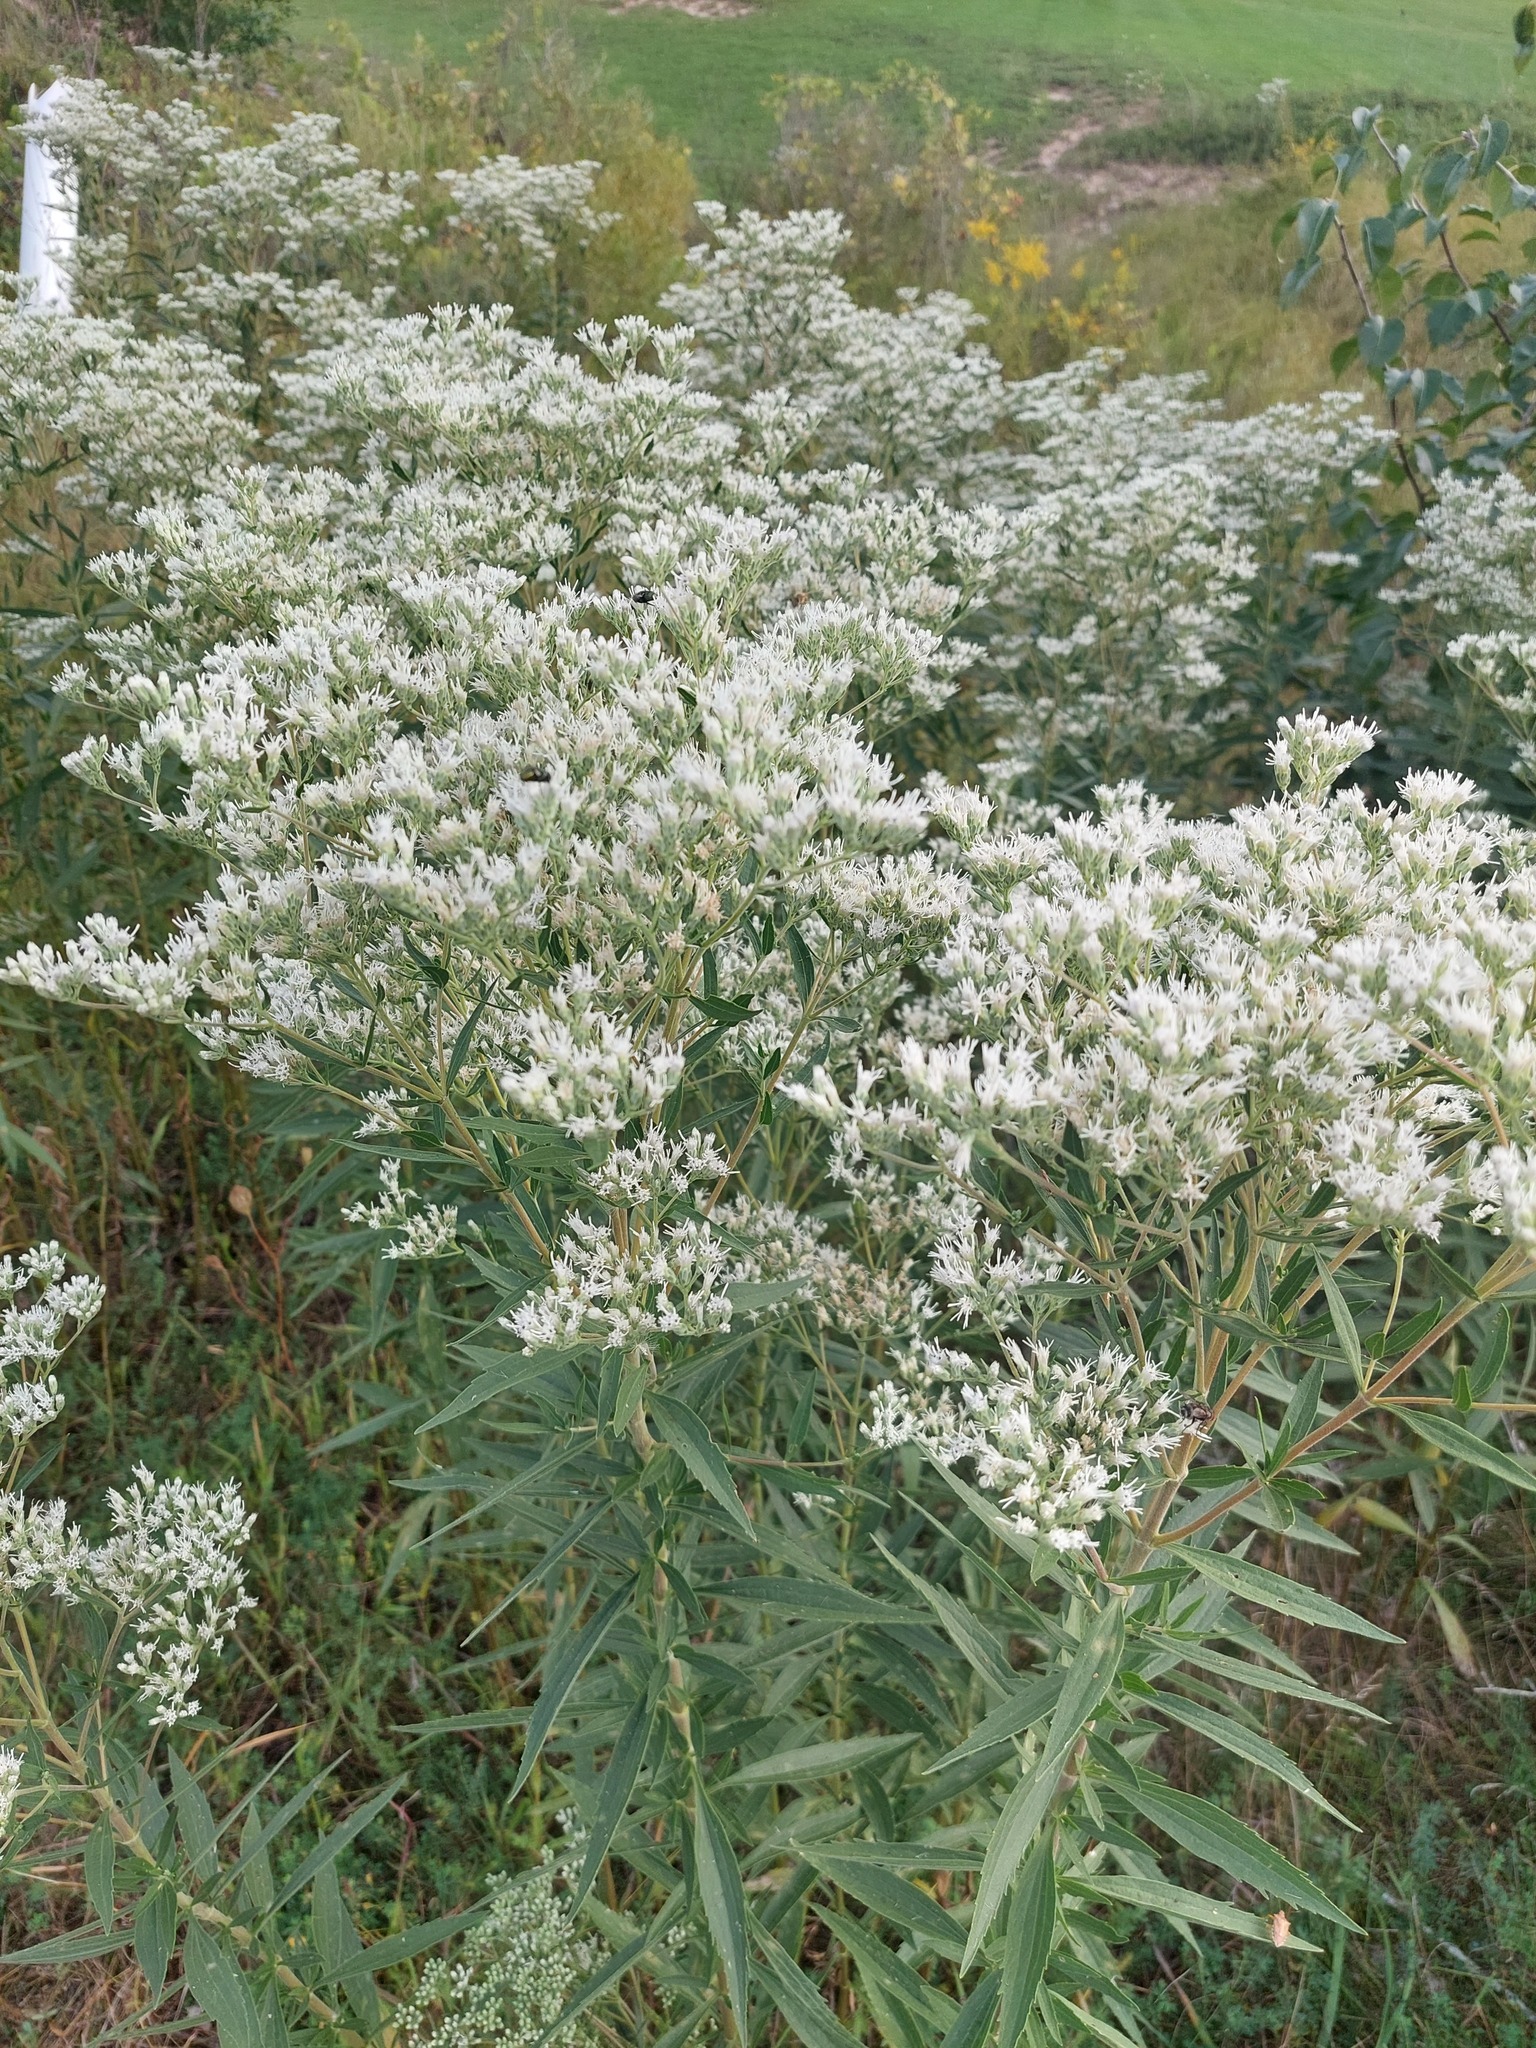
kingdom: Plantae
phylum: Tracheophyta
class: Magnoliopsida
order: Asterales
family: Asteraceae
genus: Eupatorium
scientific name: Eupatorium altissimum
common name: Tall thoroughwort
